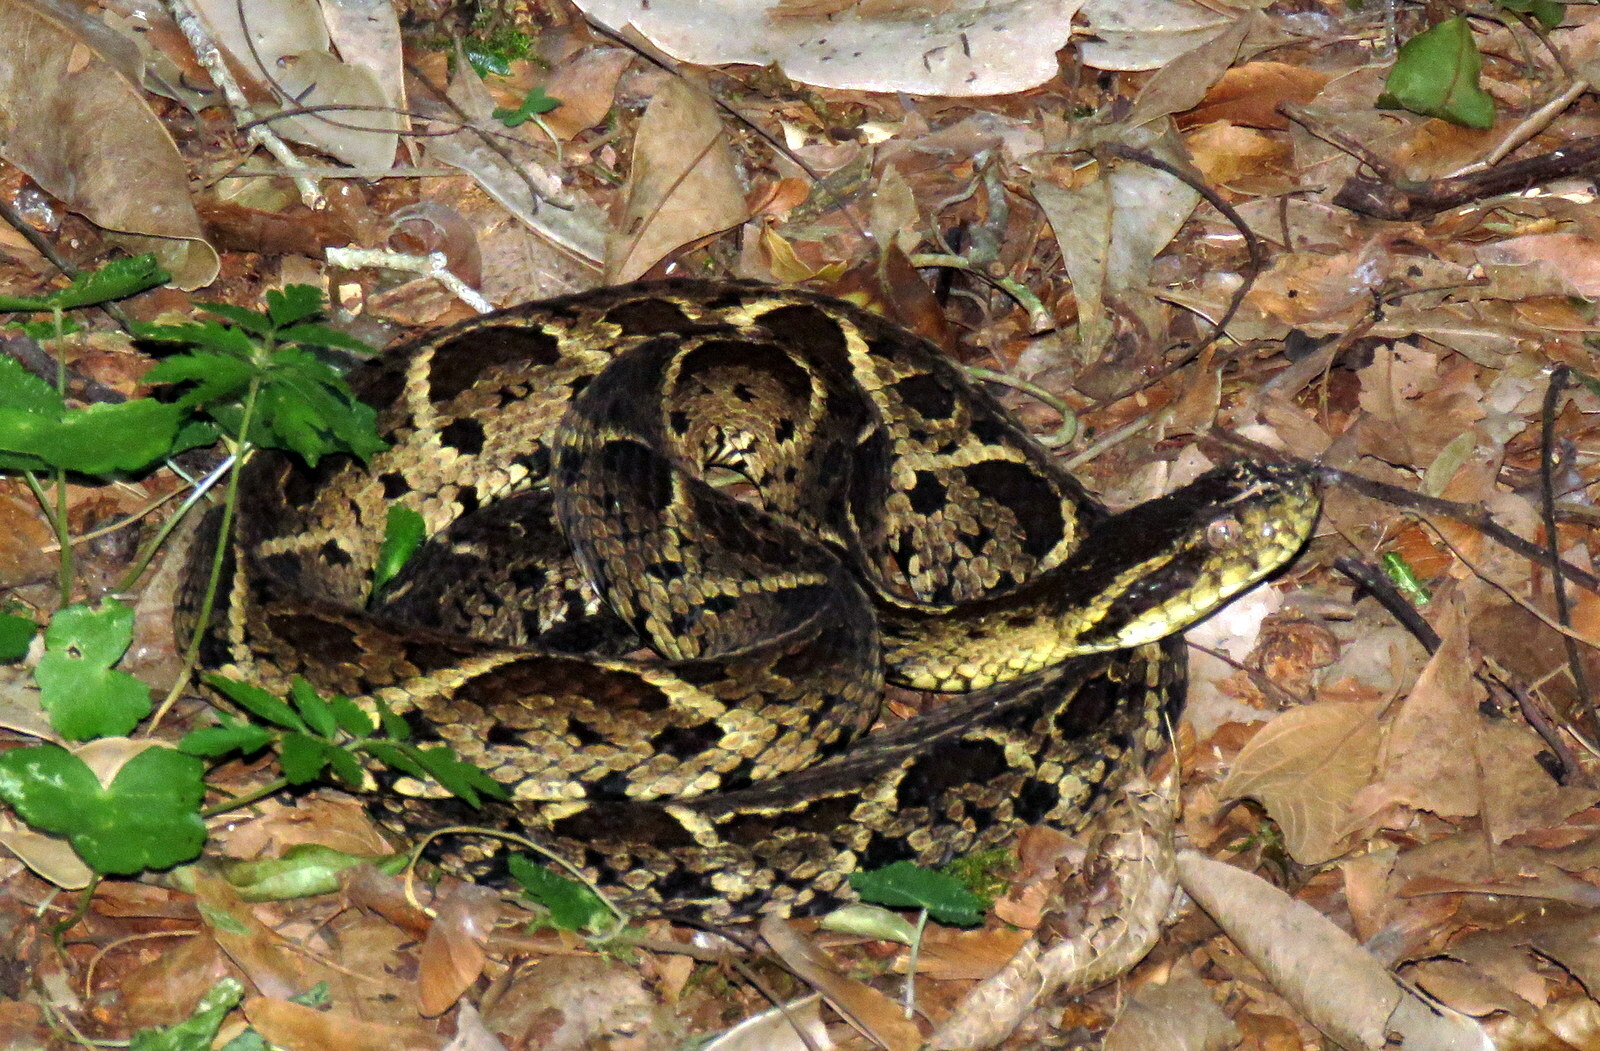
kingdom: Animalia
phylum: Chordata
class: Squamata
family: Viperidae
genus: Bothrops
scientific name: Bothrops jararacussu
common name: Jararacussu
